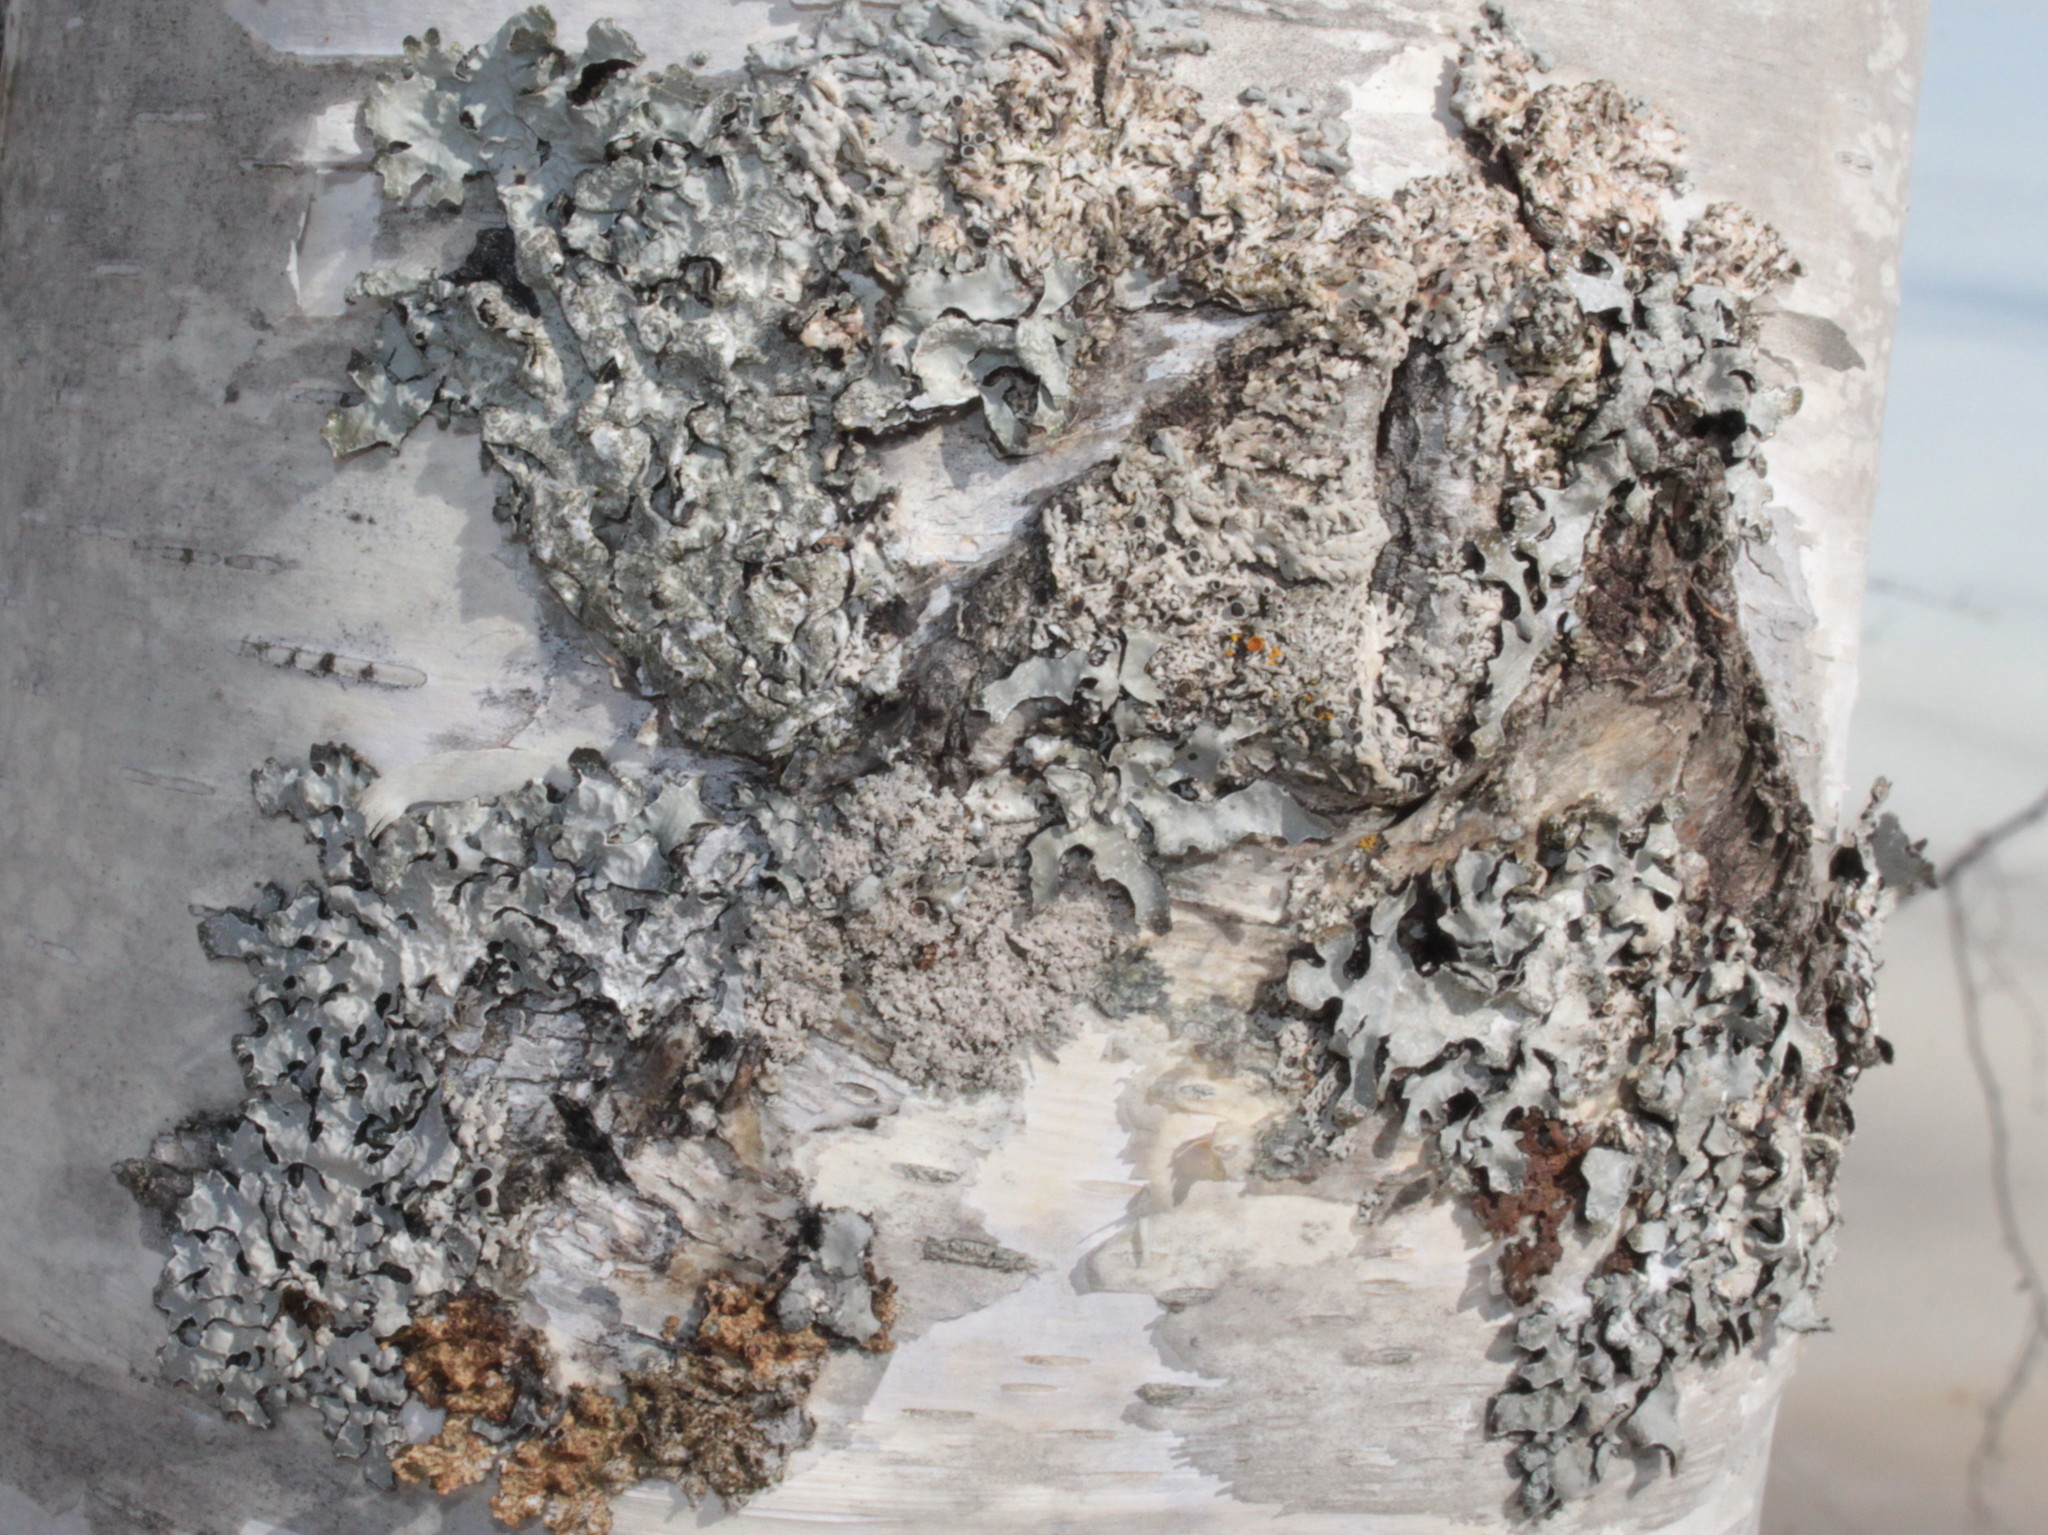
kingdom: Fungi
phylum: Ascomycota
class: Lecanoromycetes
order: Lecanorales
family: Parmeliaceae
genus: Parmelia
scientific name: Parmelia sulcata
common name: Netted shield lichen
